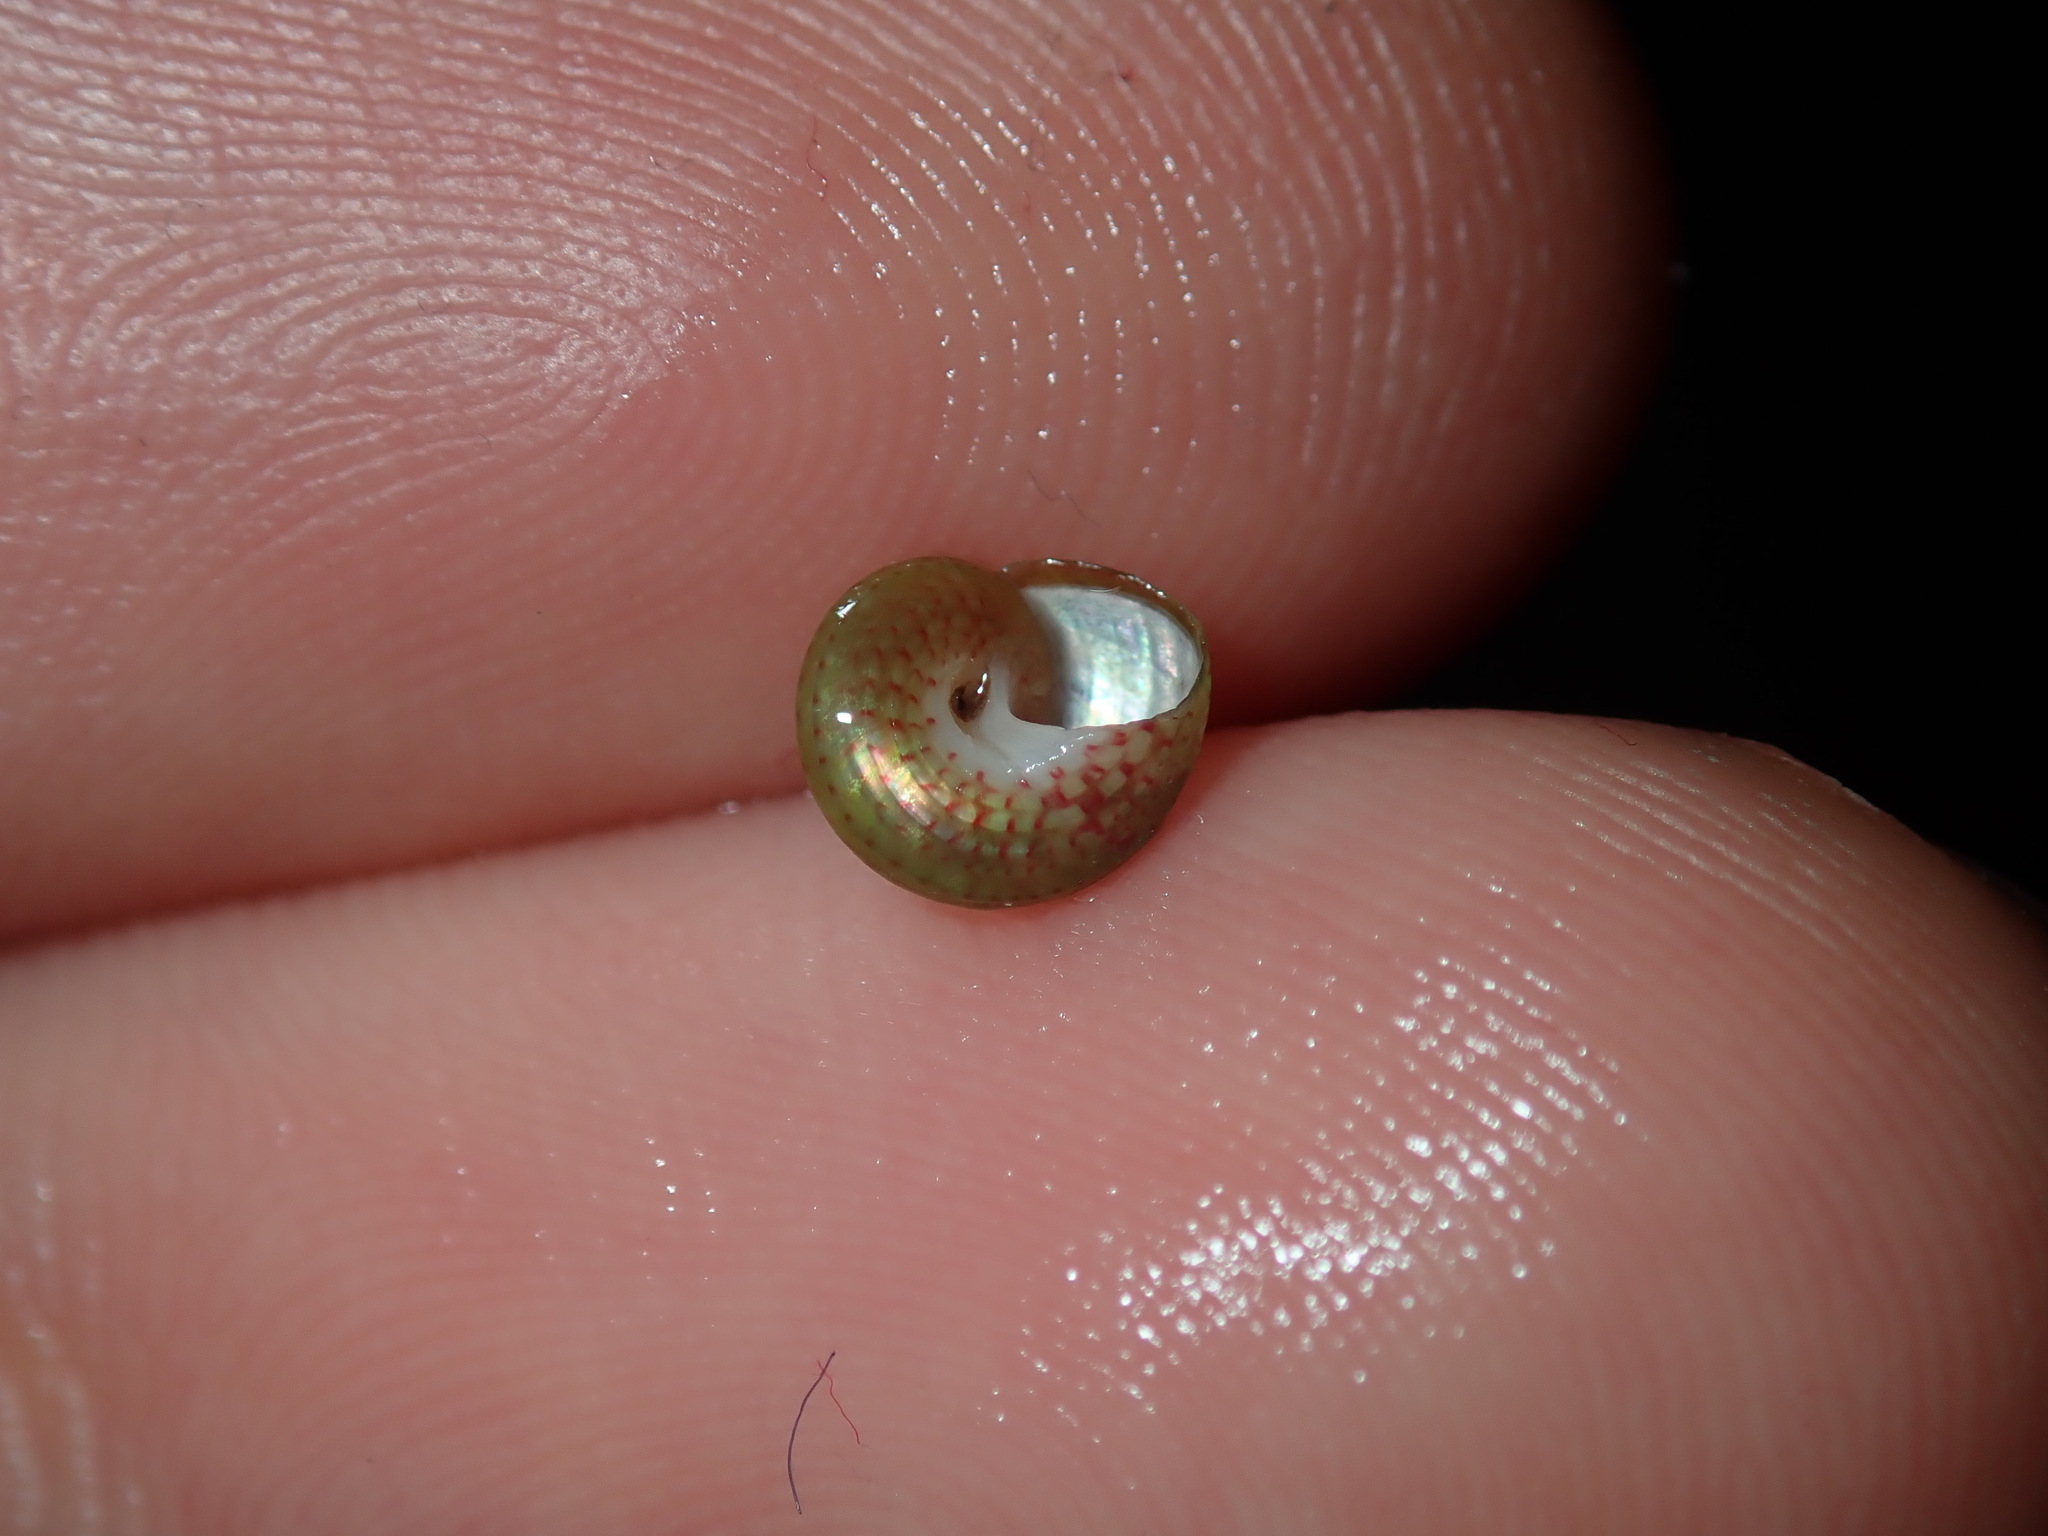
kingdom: Animalia
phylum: Mollusca
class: Gastropoda
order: Trochida
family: Trochidae
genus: Cantharidella
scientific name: Cantharidella picturata
